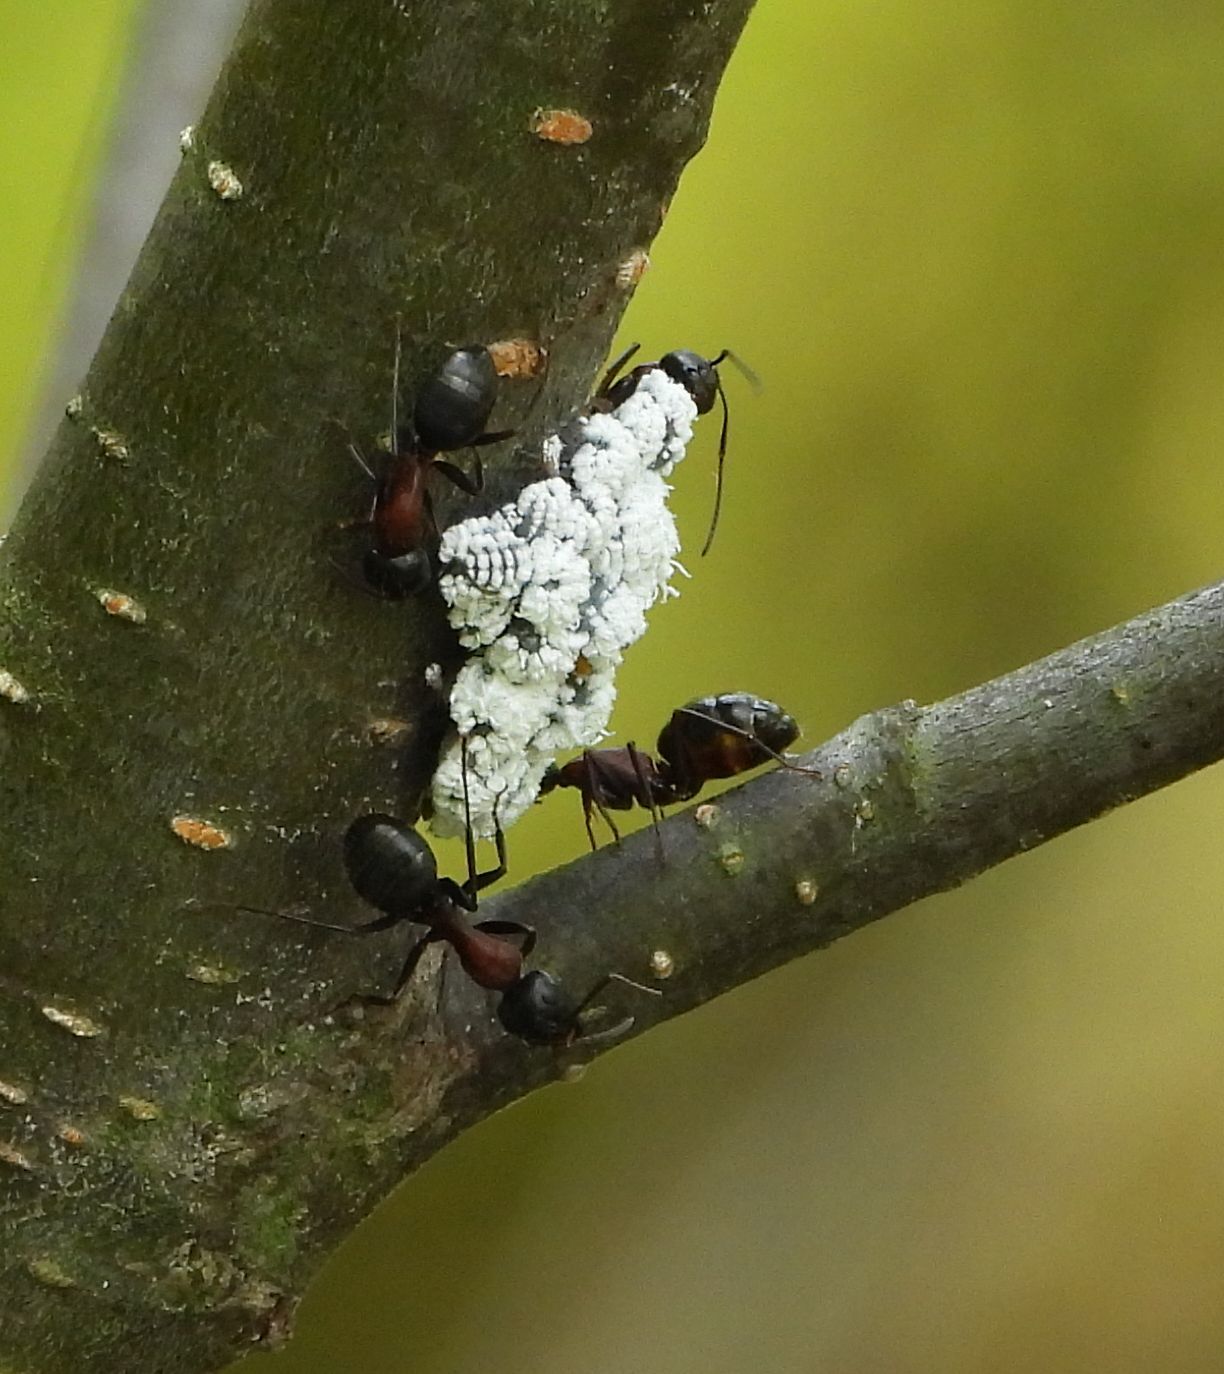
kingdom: Animalia
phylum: Arthropoda
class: Insecta
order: Hemiptera
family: Aphididae
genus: Prociphilus
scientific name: Prociphilus tessellatus
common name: Woolly alder aphid
